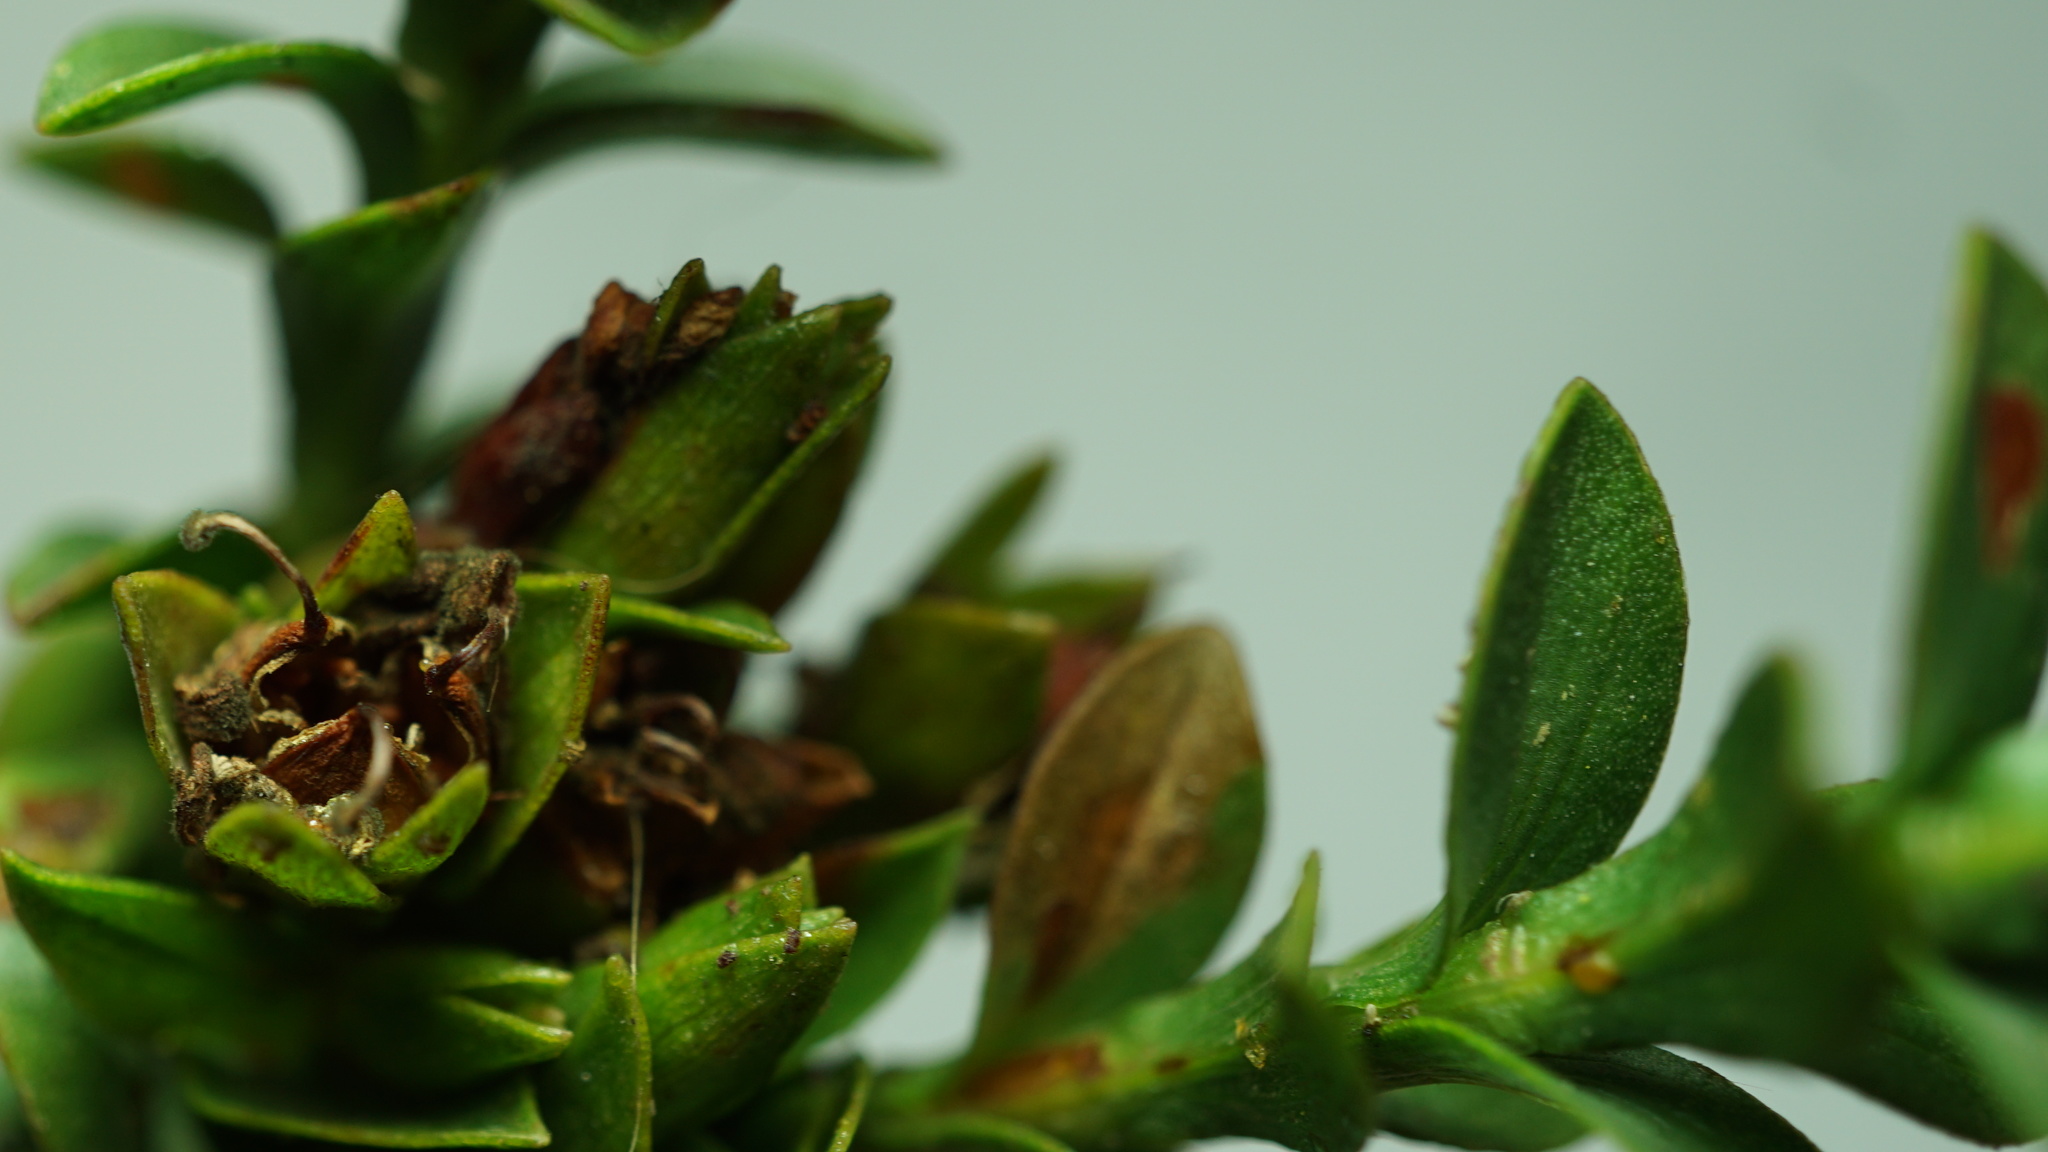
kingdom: Plantae
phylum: Tracheophyta
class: Magnoliopsida
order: Malpighiales
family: Hypericaceae
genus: Hypericum
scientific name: Hypericum mexicanum
